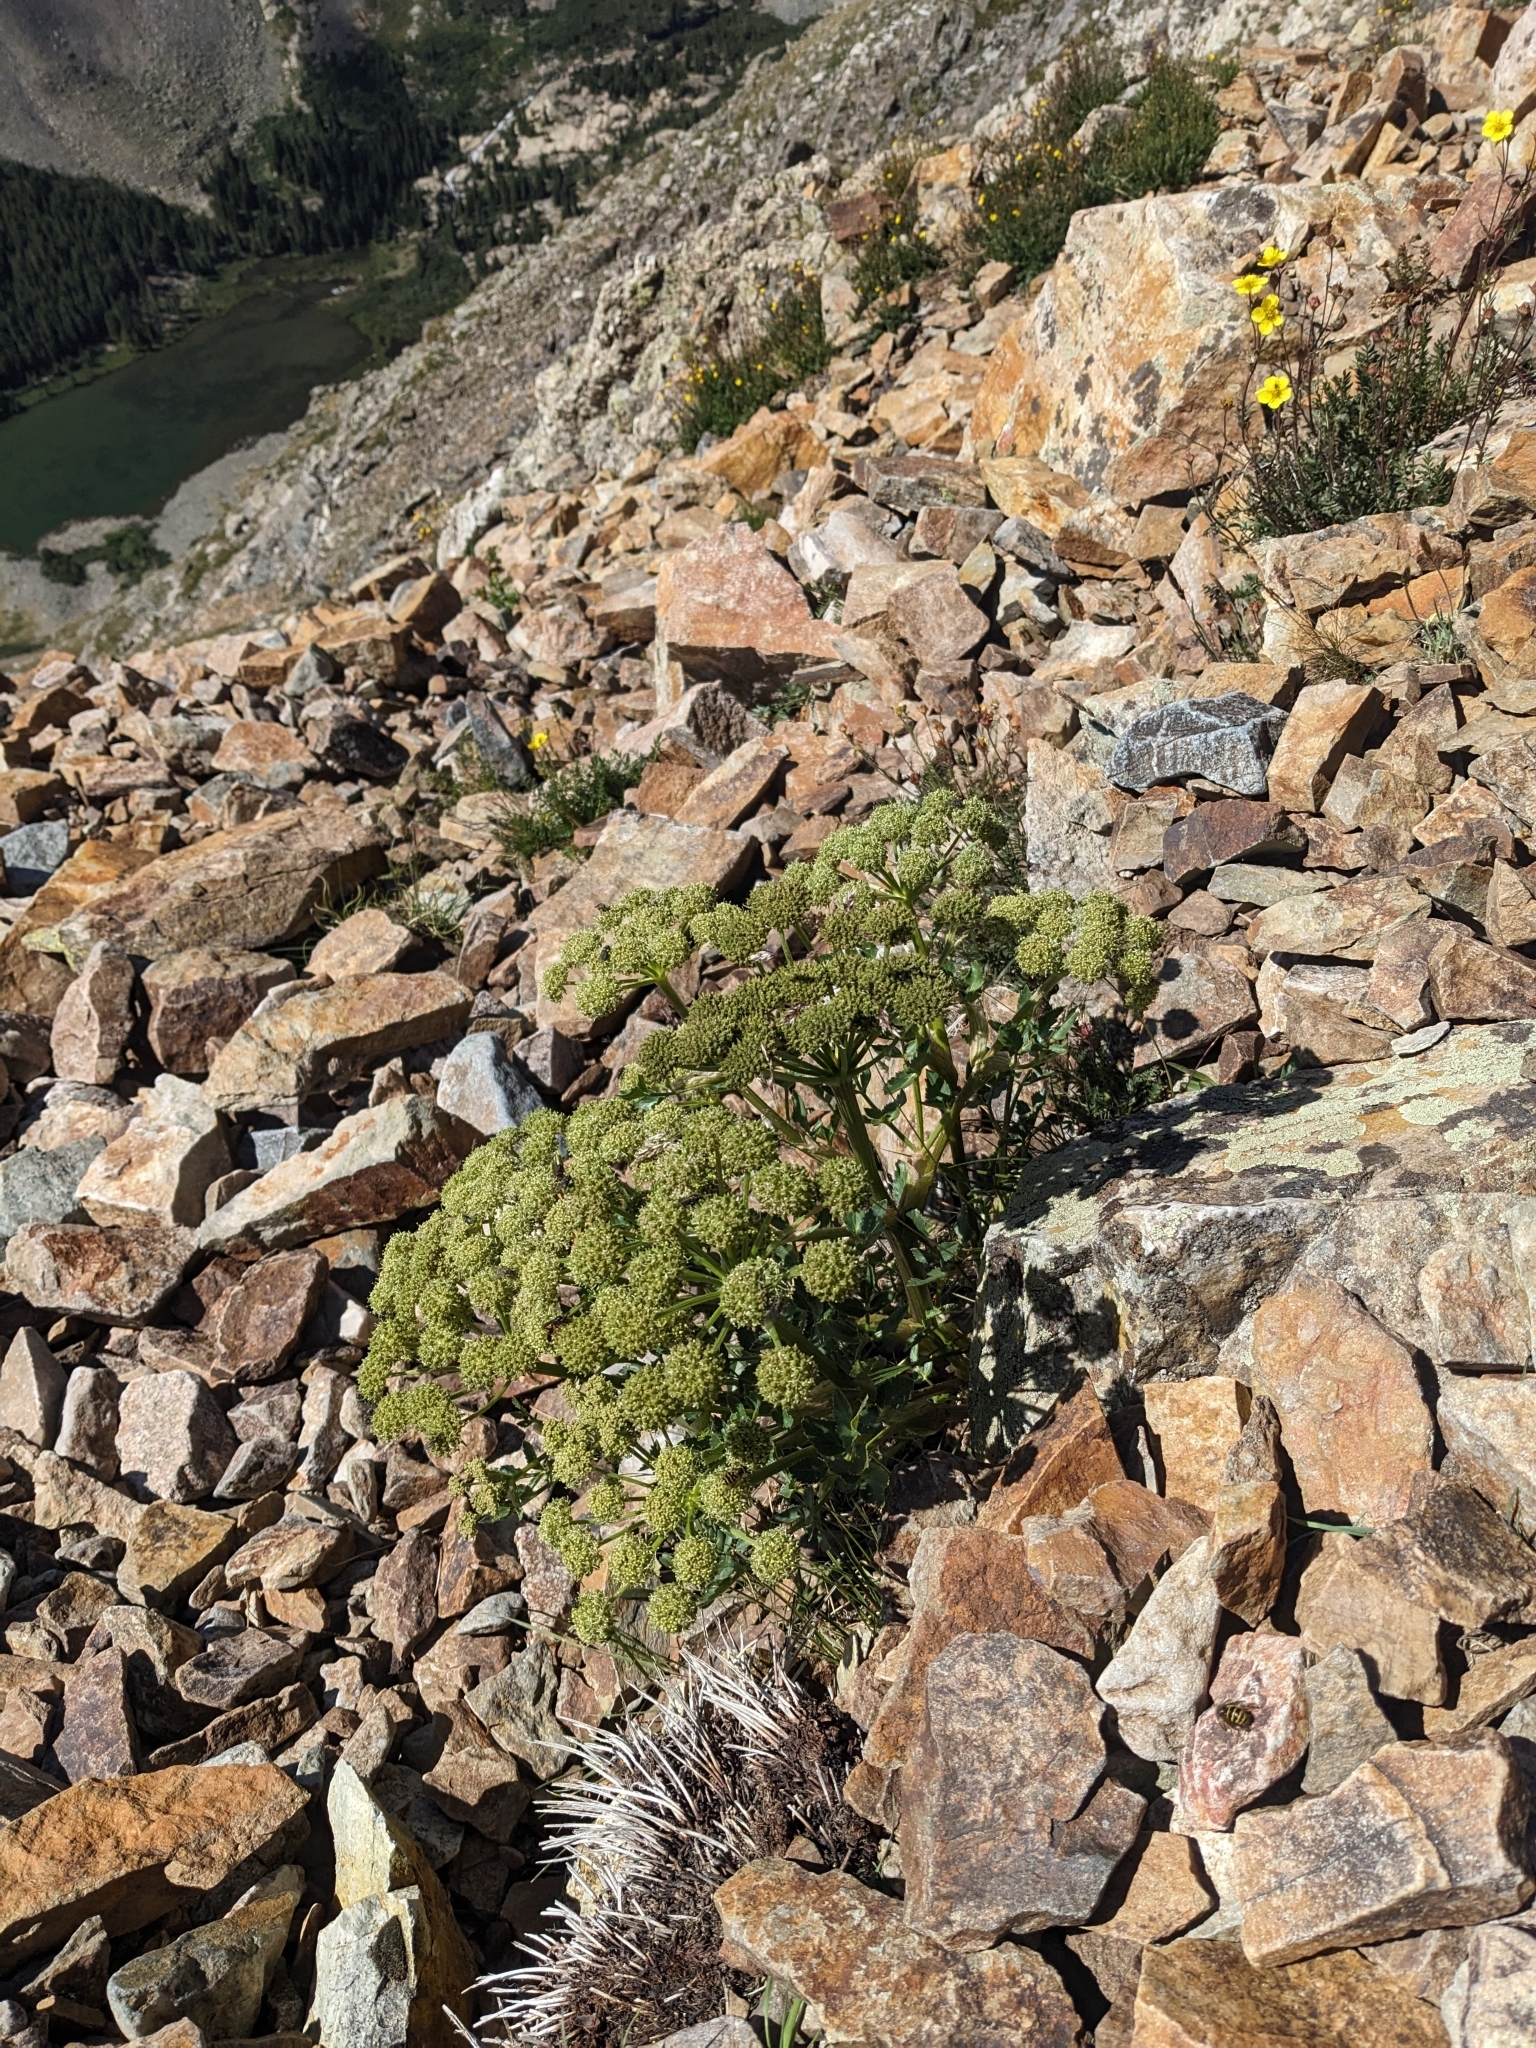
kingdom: Plantae
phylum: Tracheophyta
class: Magnoliopsida
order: Apiales
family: Apiaceae
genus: Angelica
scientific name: Angelica grayi
